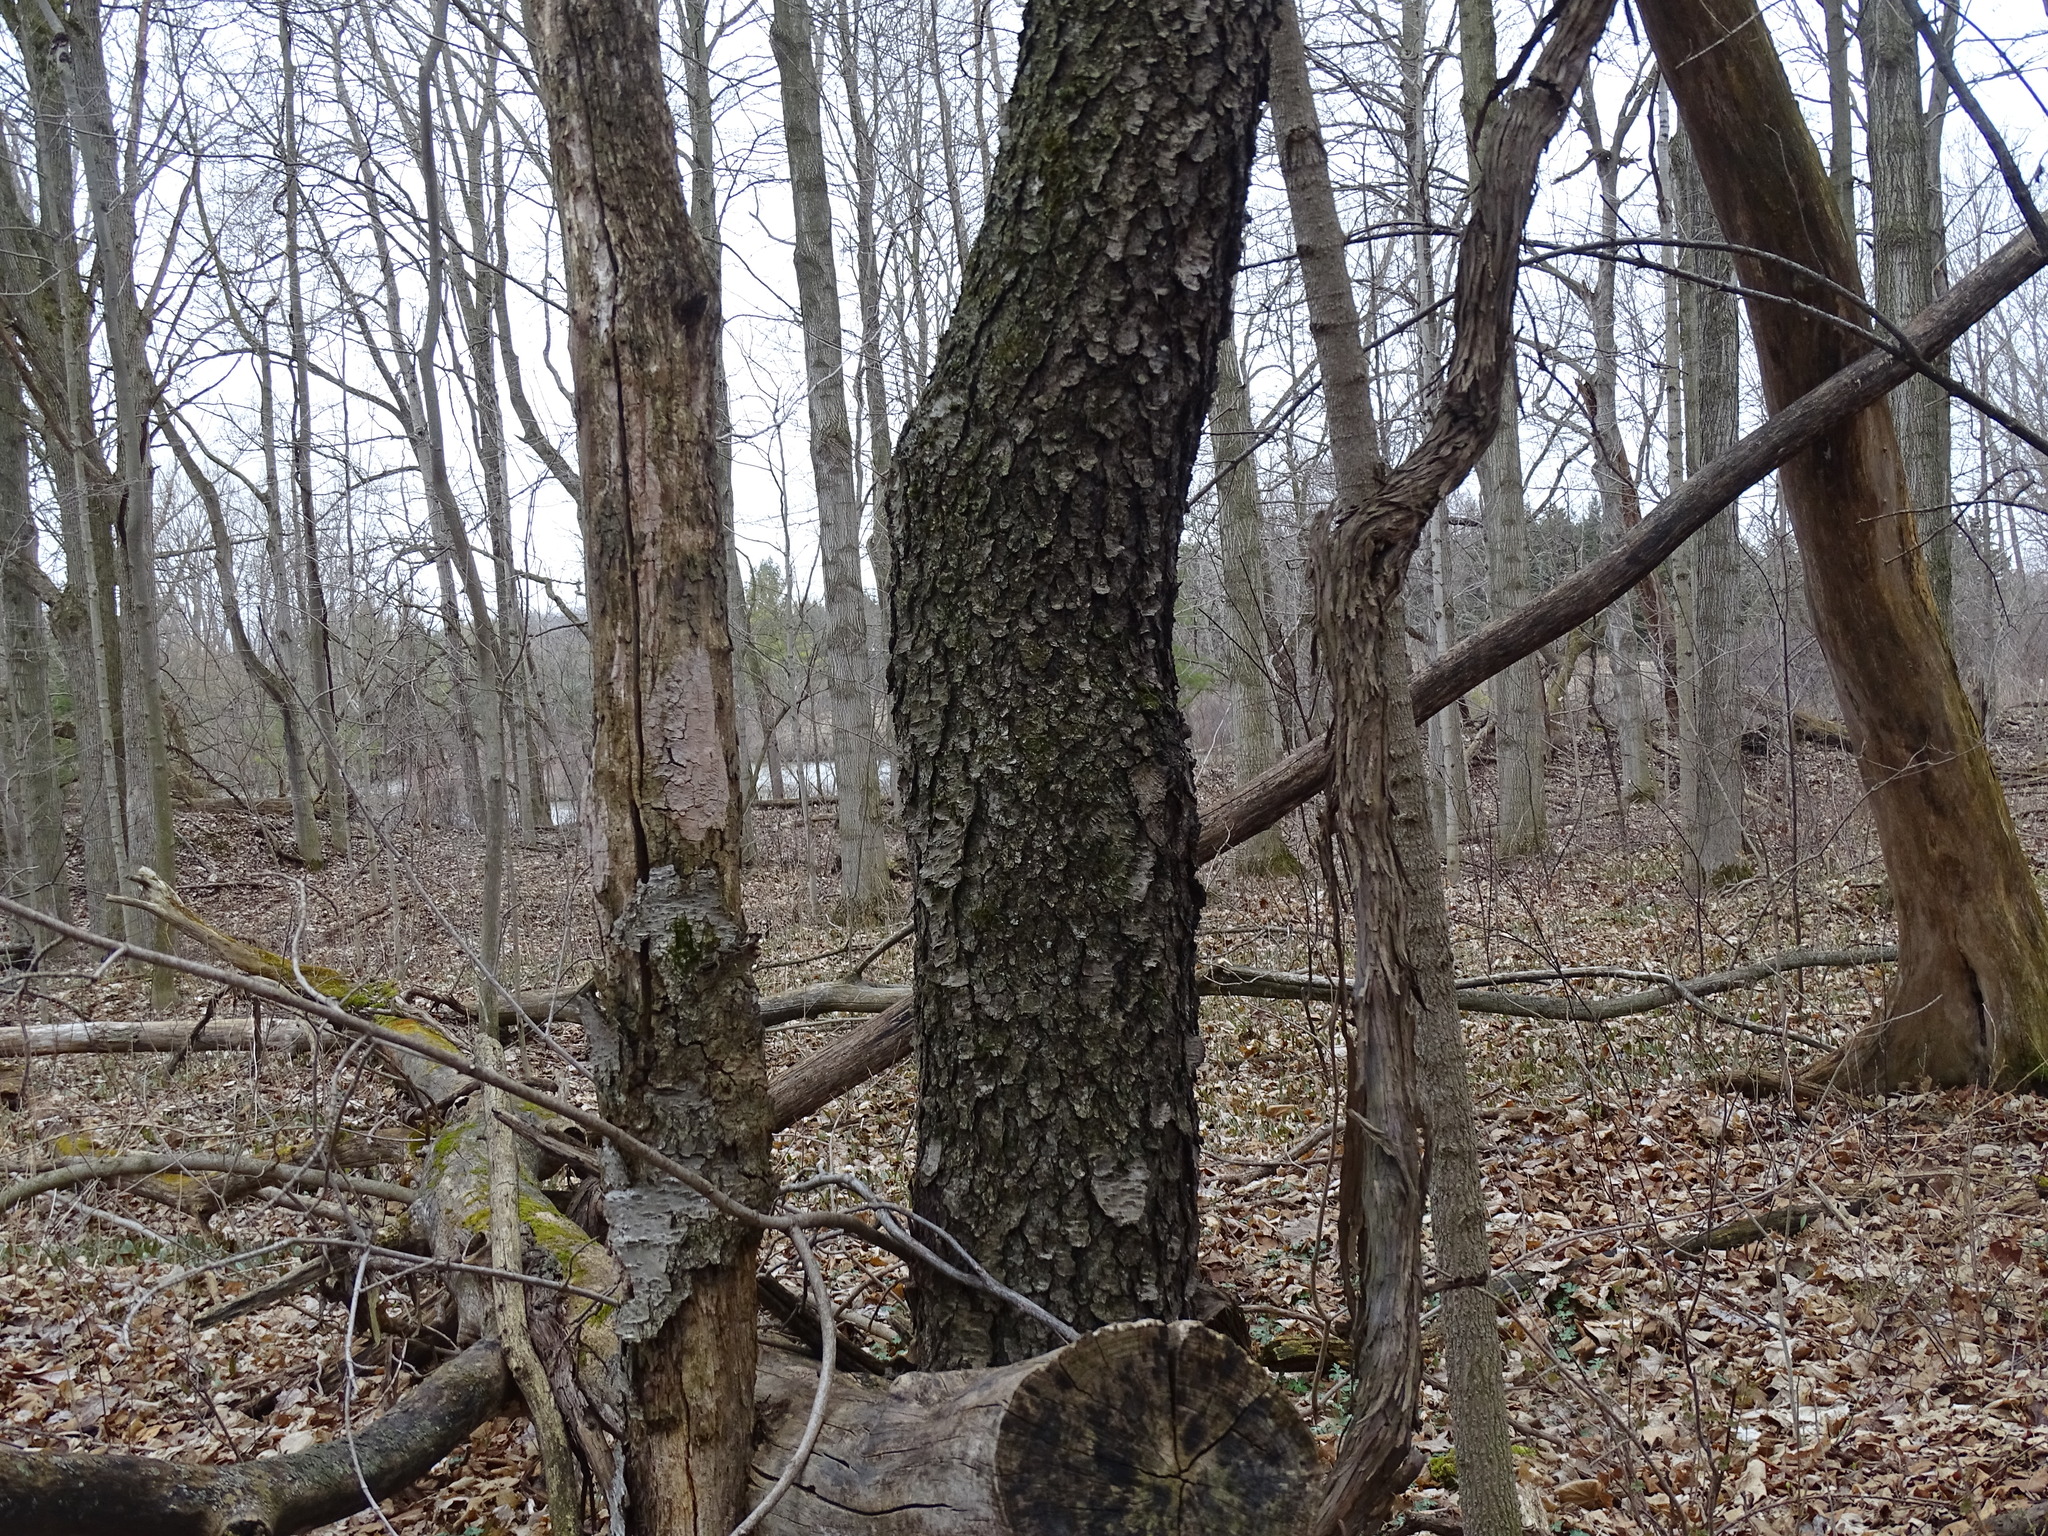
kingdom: Plantae
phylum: Tracheophyta
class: Magnoliopsida
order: Rosales
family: Rosaceae
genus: Prunus
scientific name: Prunus serotina
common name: Black cherry
